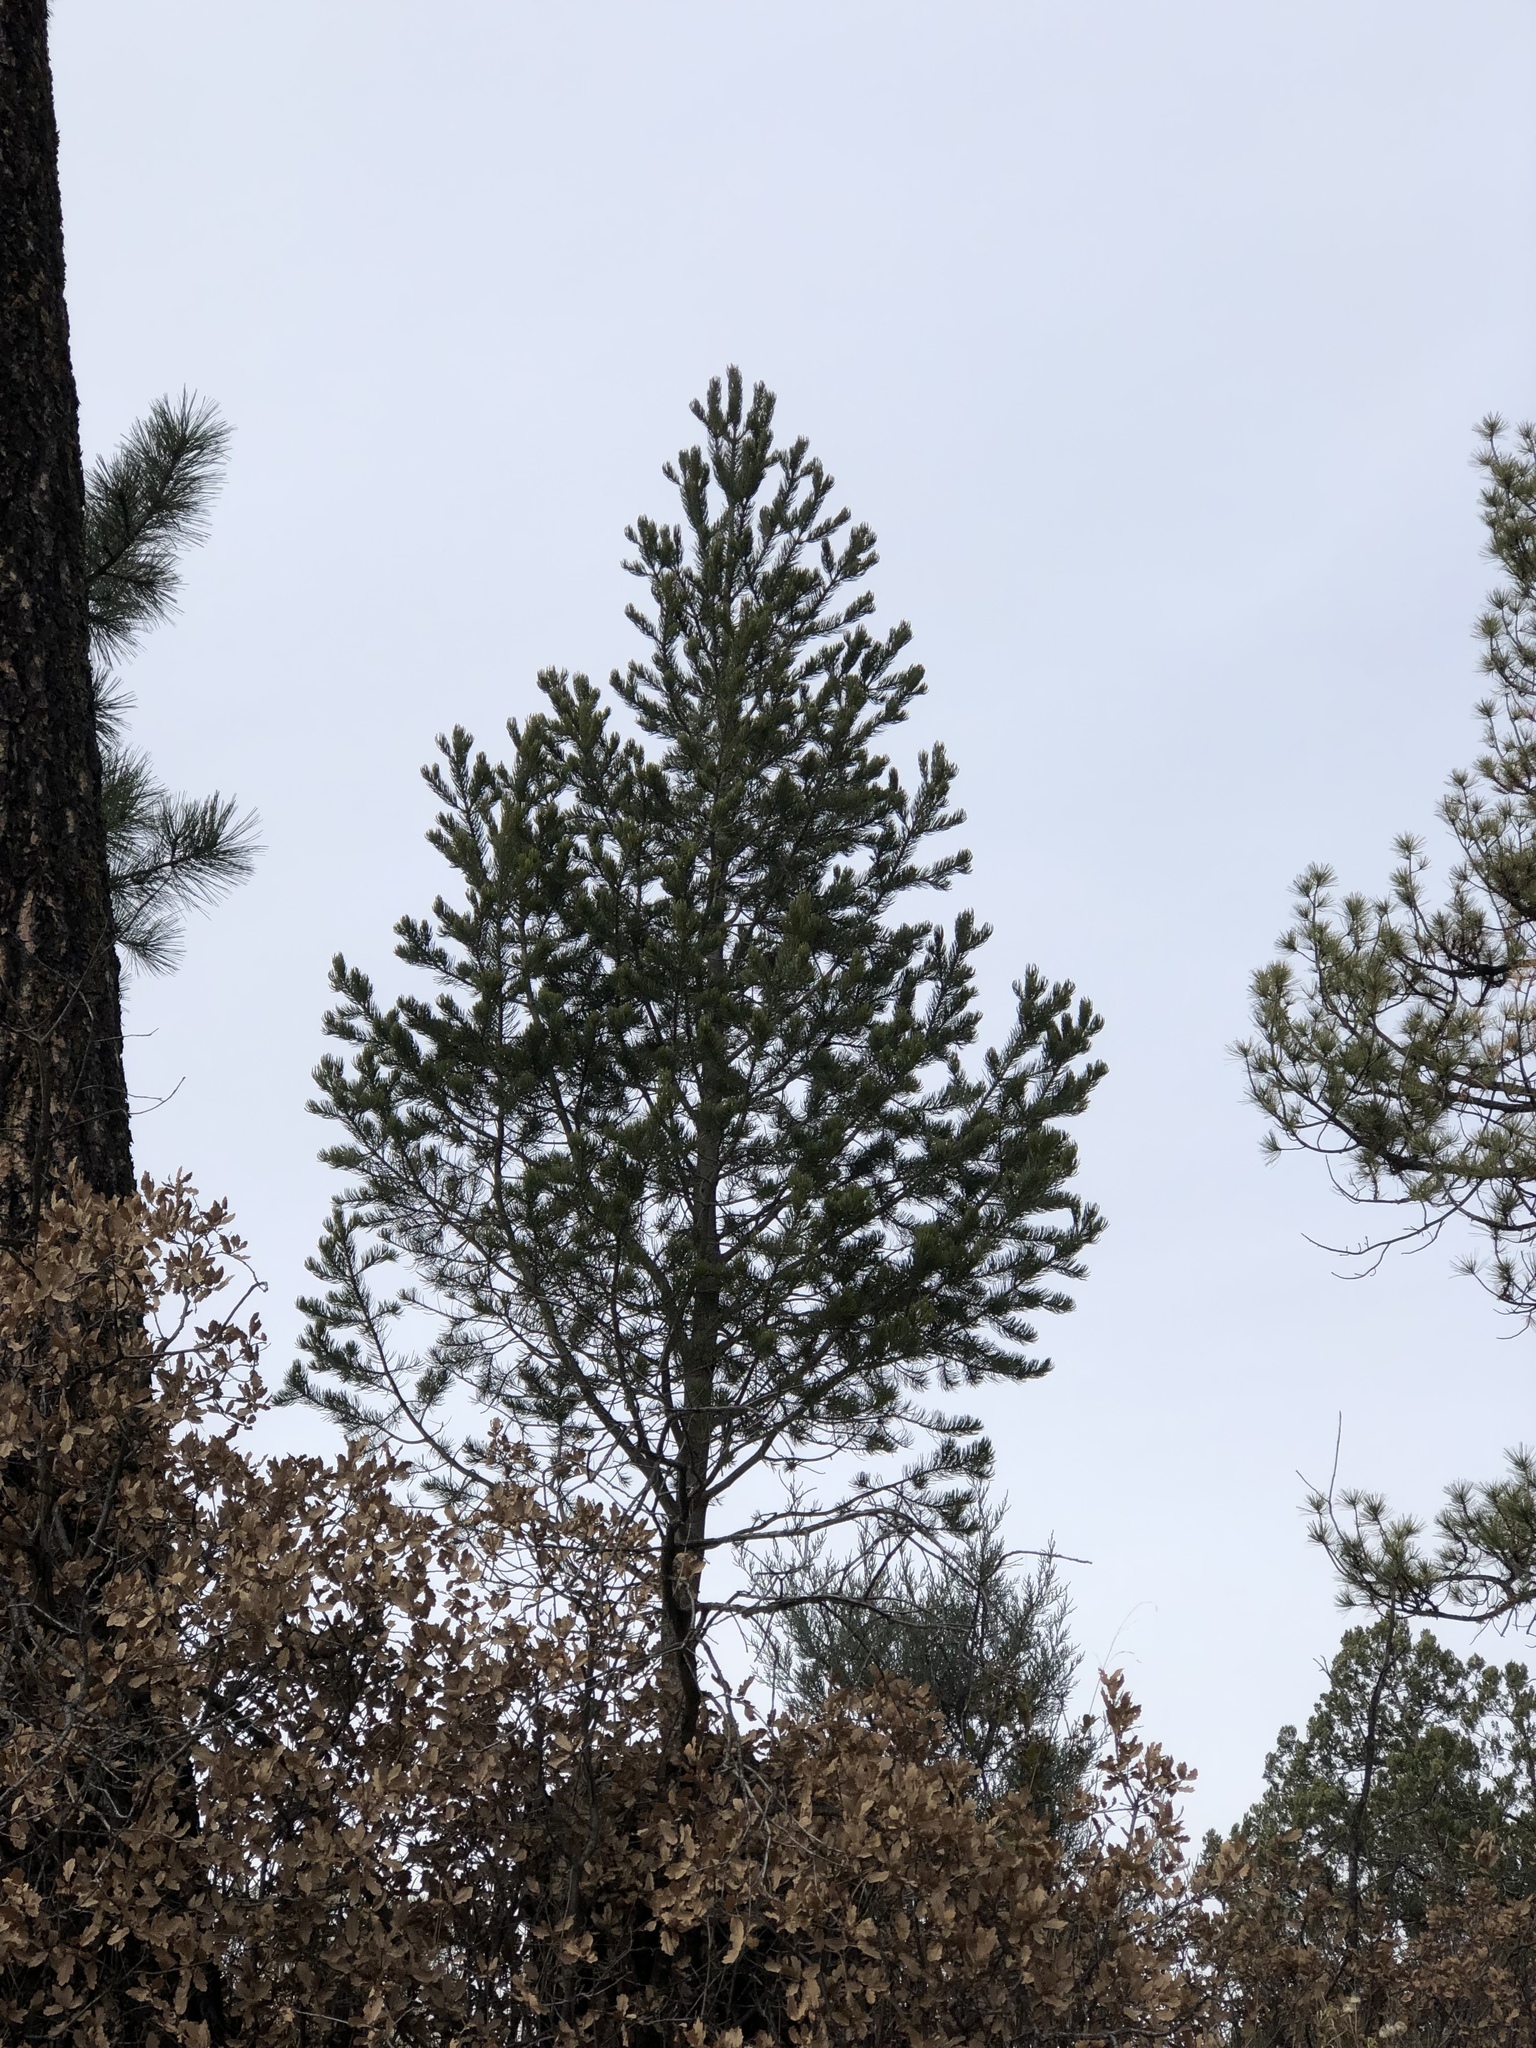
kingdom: Plantae
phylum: Tracheophyta
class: Pinopsida
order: Pinales
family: Pinaceae
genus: Pinus
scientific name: Pinus edulis
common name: Colorado pinyon
